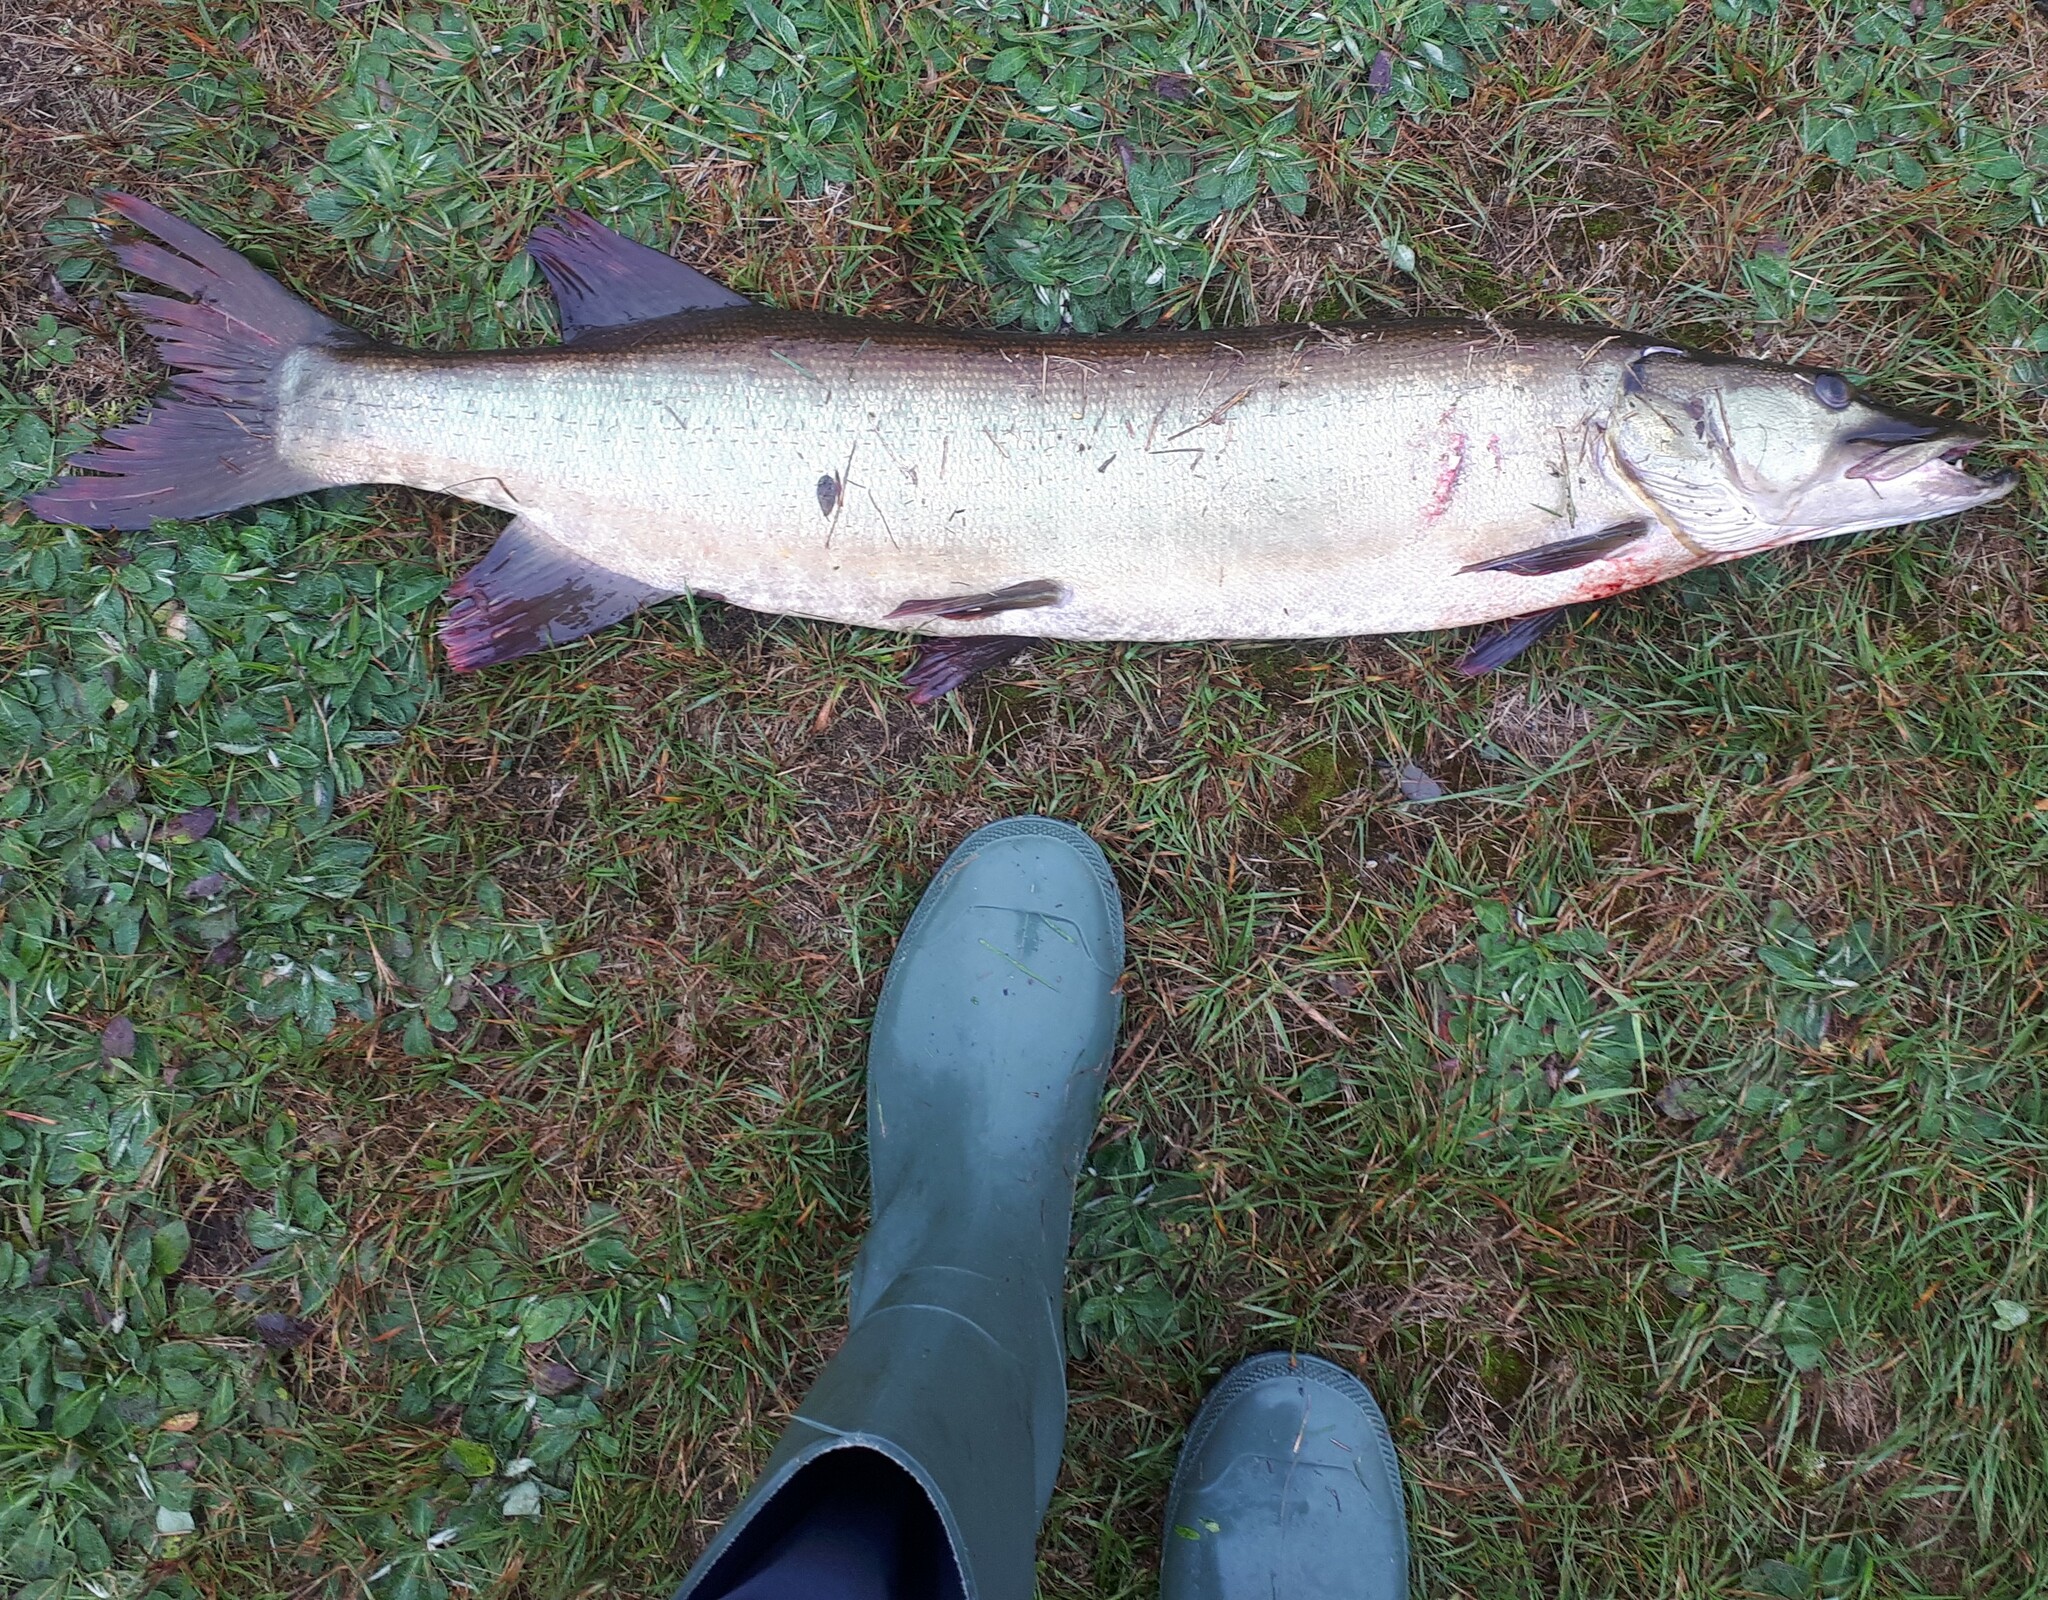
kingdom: Animalia
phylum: Chordata
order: Esociformes
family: Esocidae
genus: Esox
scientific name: Esox masquinongy
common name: Muskellunge
